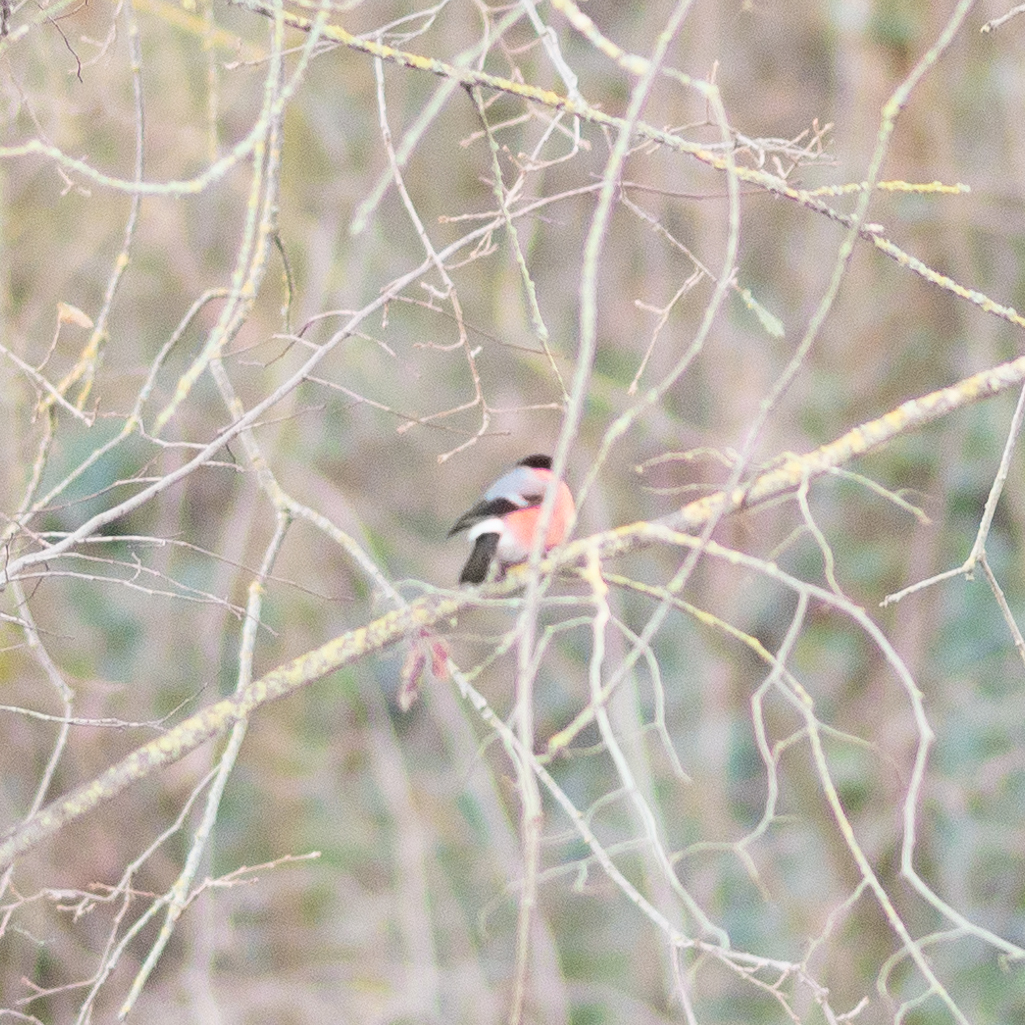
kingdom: Animalia
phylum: Chordata
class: Aves
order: Passeriformes
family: Fringillidae
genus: Pyrrhula
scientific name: Pyrrhula pyrrhula
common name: Eurasian bullfinch
